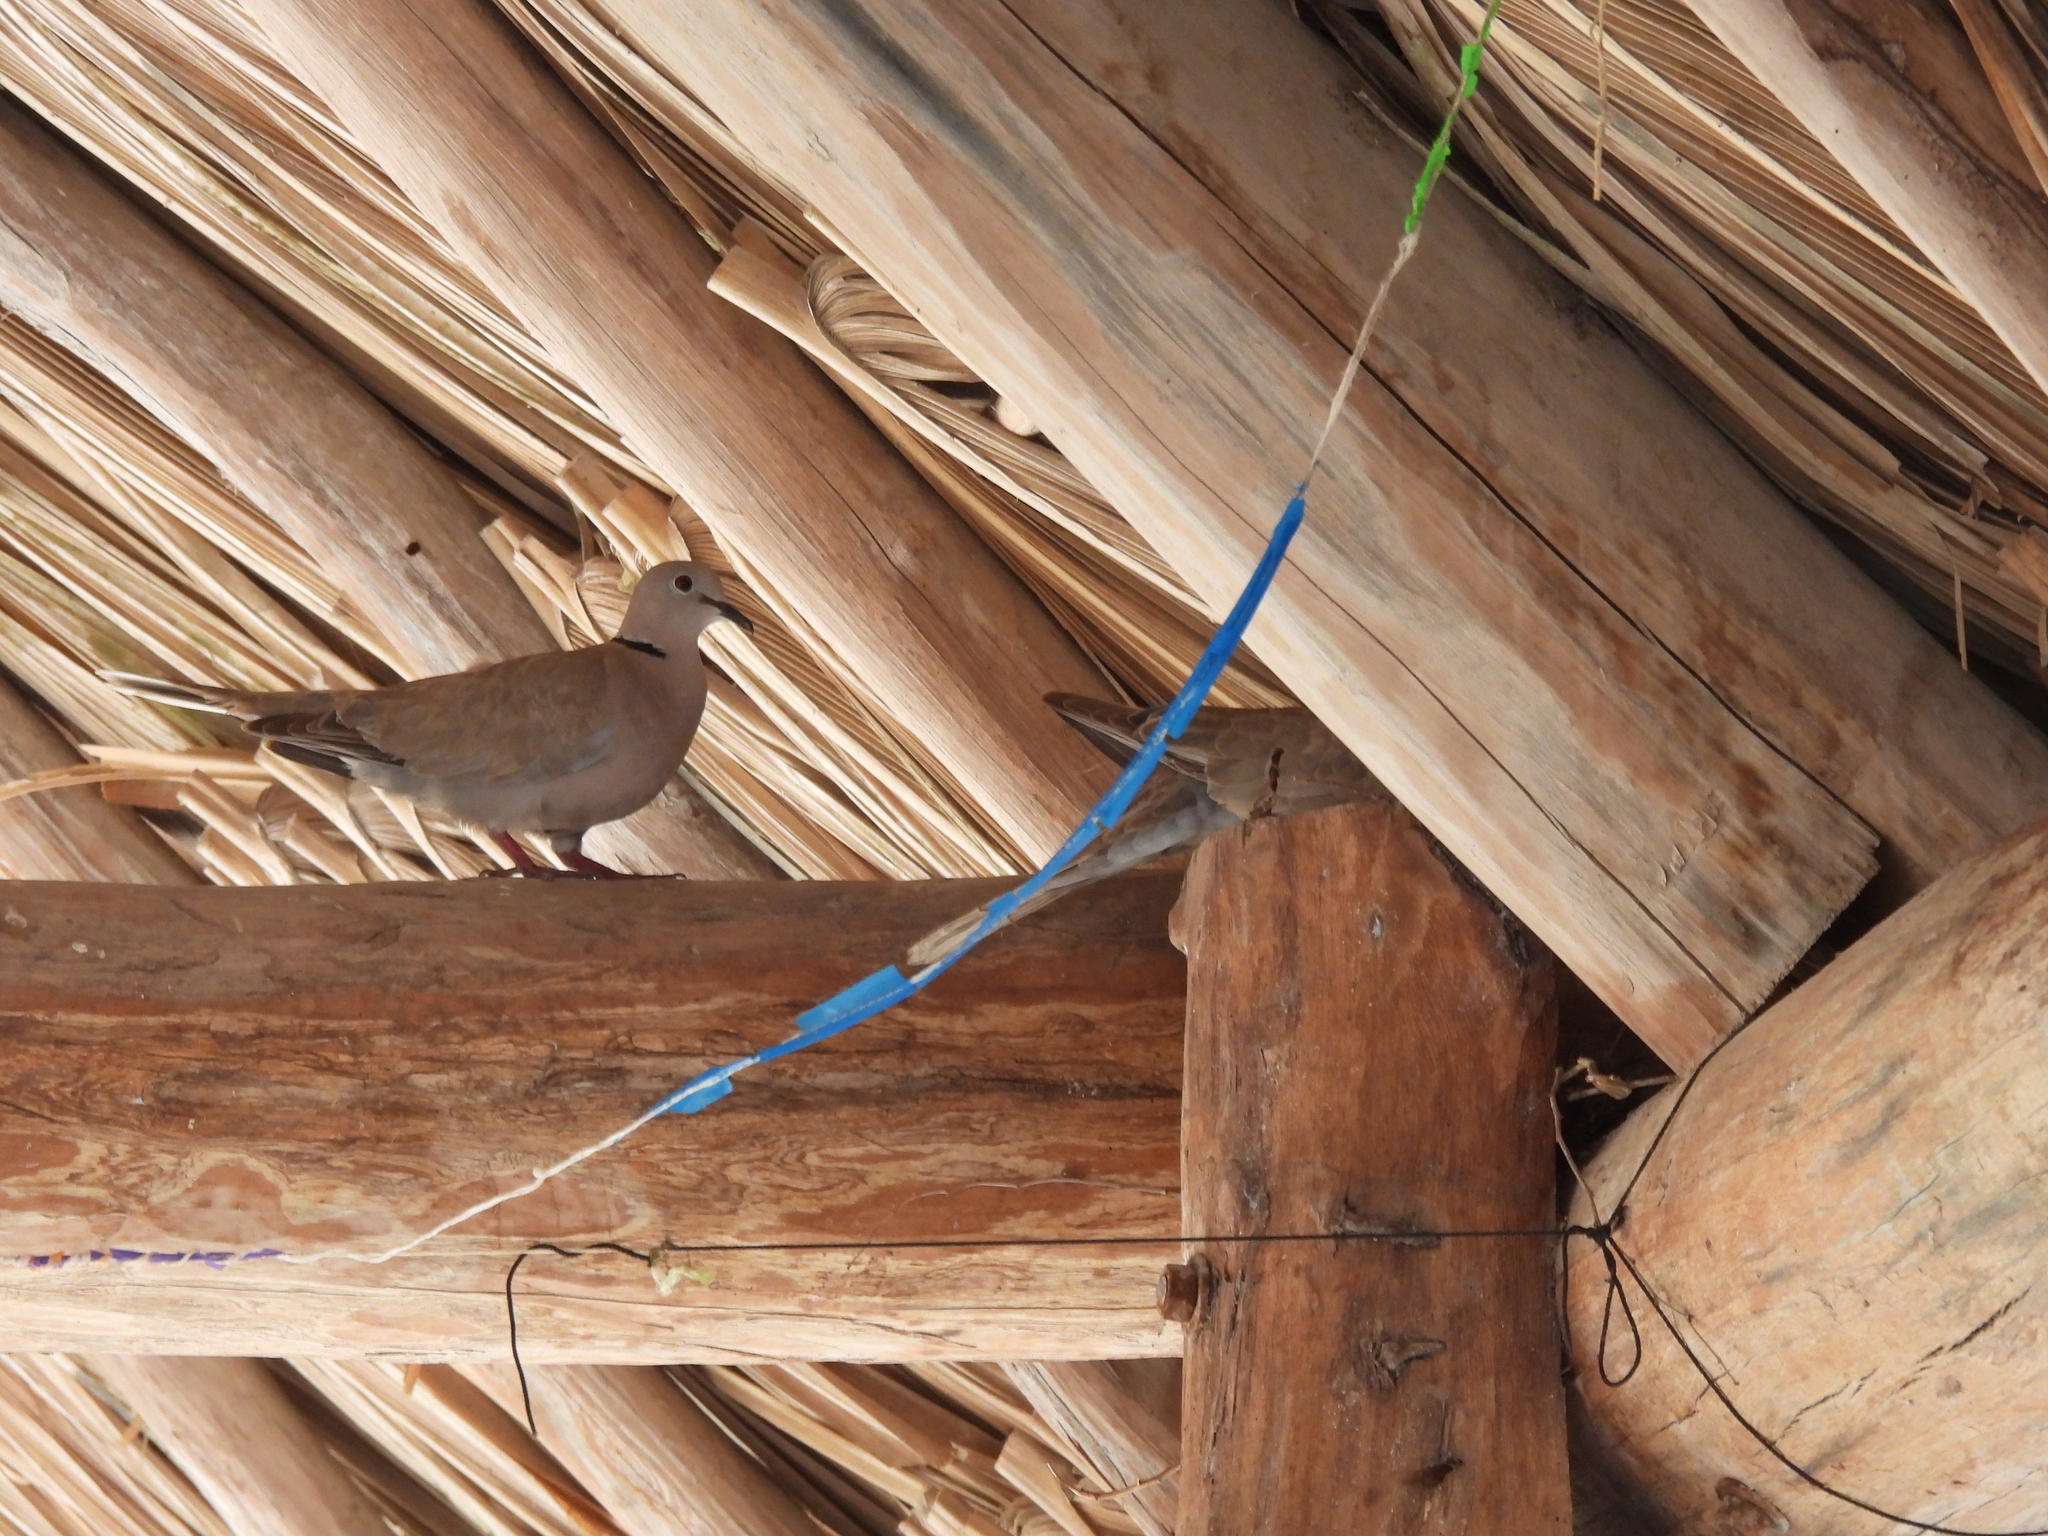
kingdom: Animalia
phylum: Chordata
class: Aves
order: Columbiformes
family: Columbidae
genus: Streptopelia
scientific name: Streptopelia decaocto
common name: Eurasian collared dove
